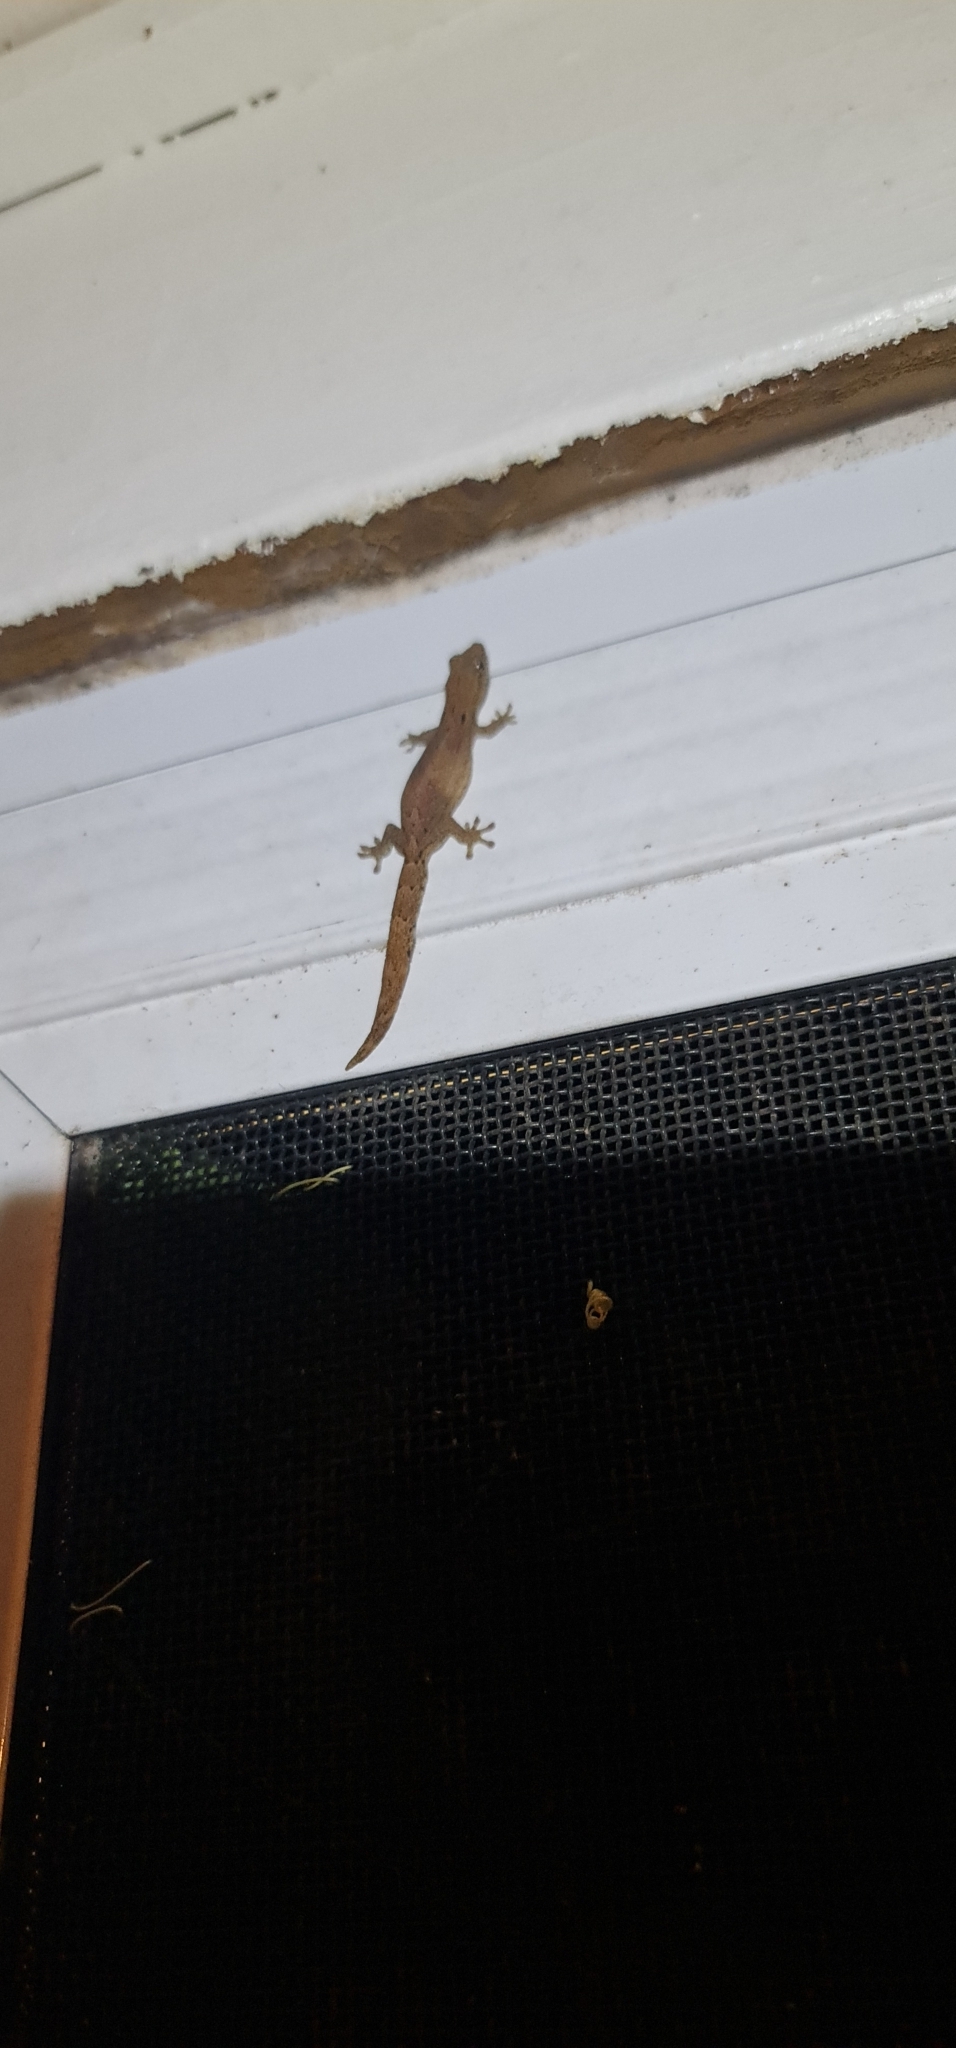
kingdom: Animalia
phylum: Chordata
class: Squamata
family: Gekkonidae
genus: Lepidodactylus
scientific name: Lepidodactylus lugubris
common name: Mourning gecko
